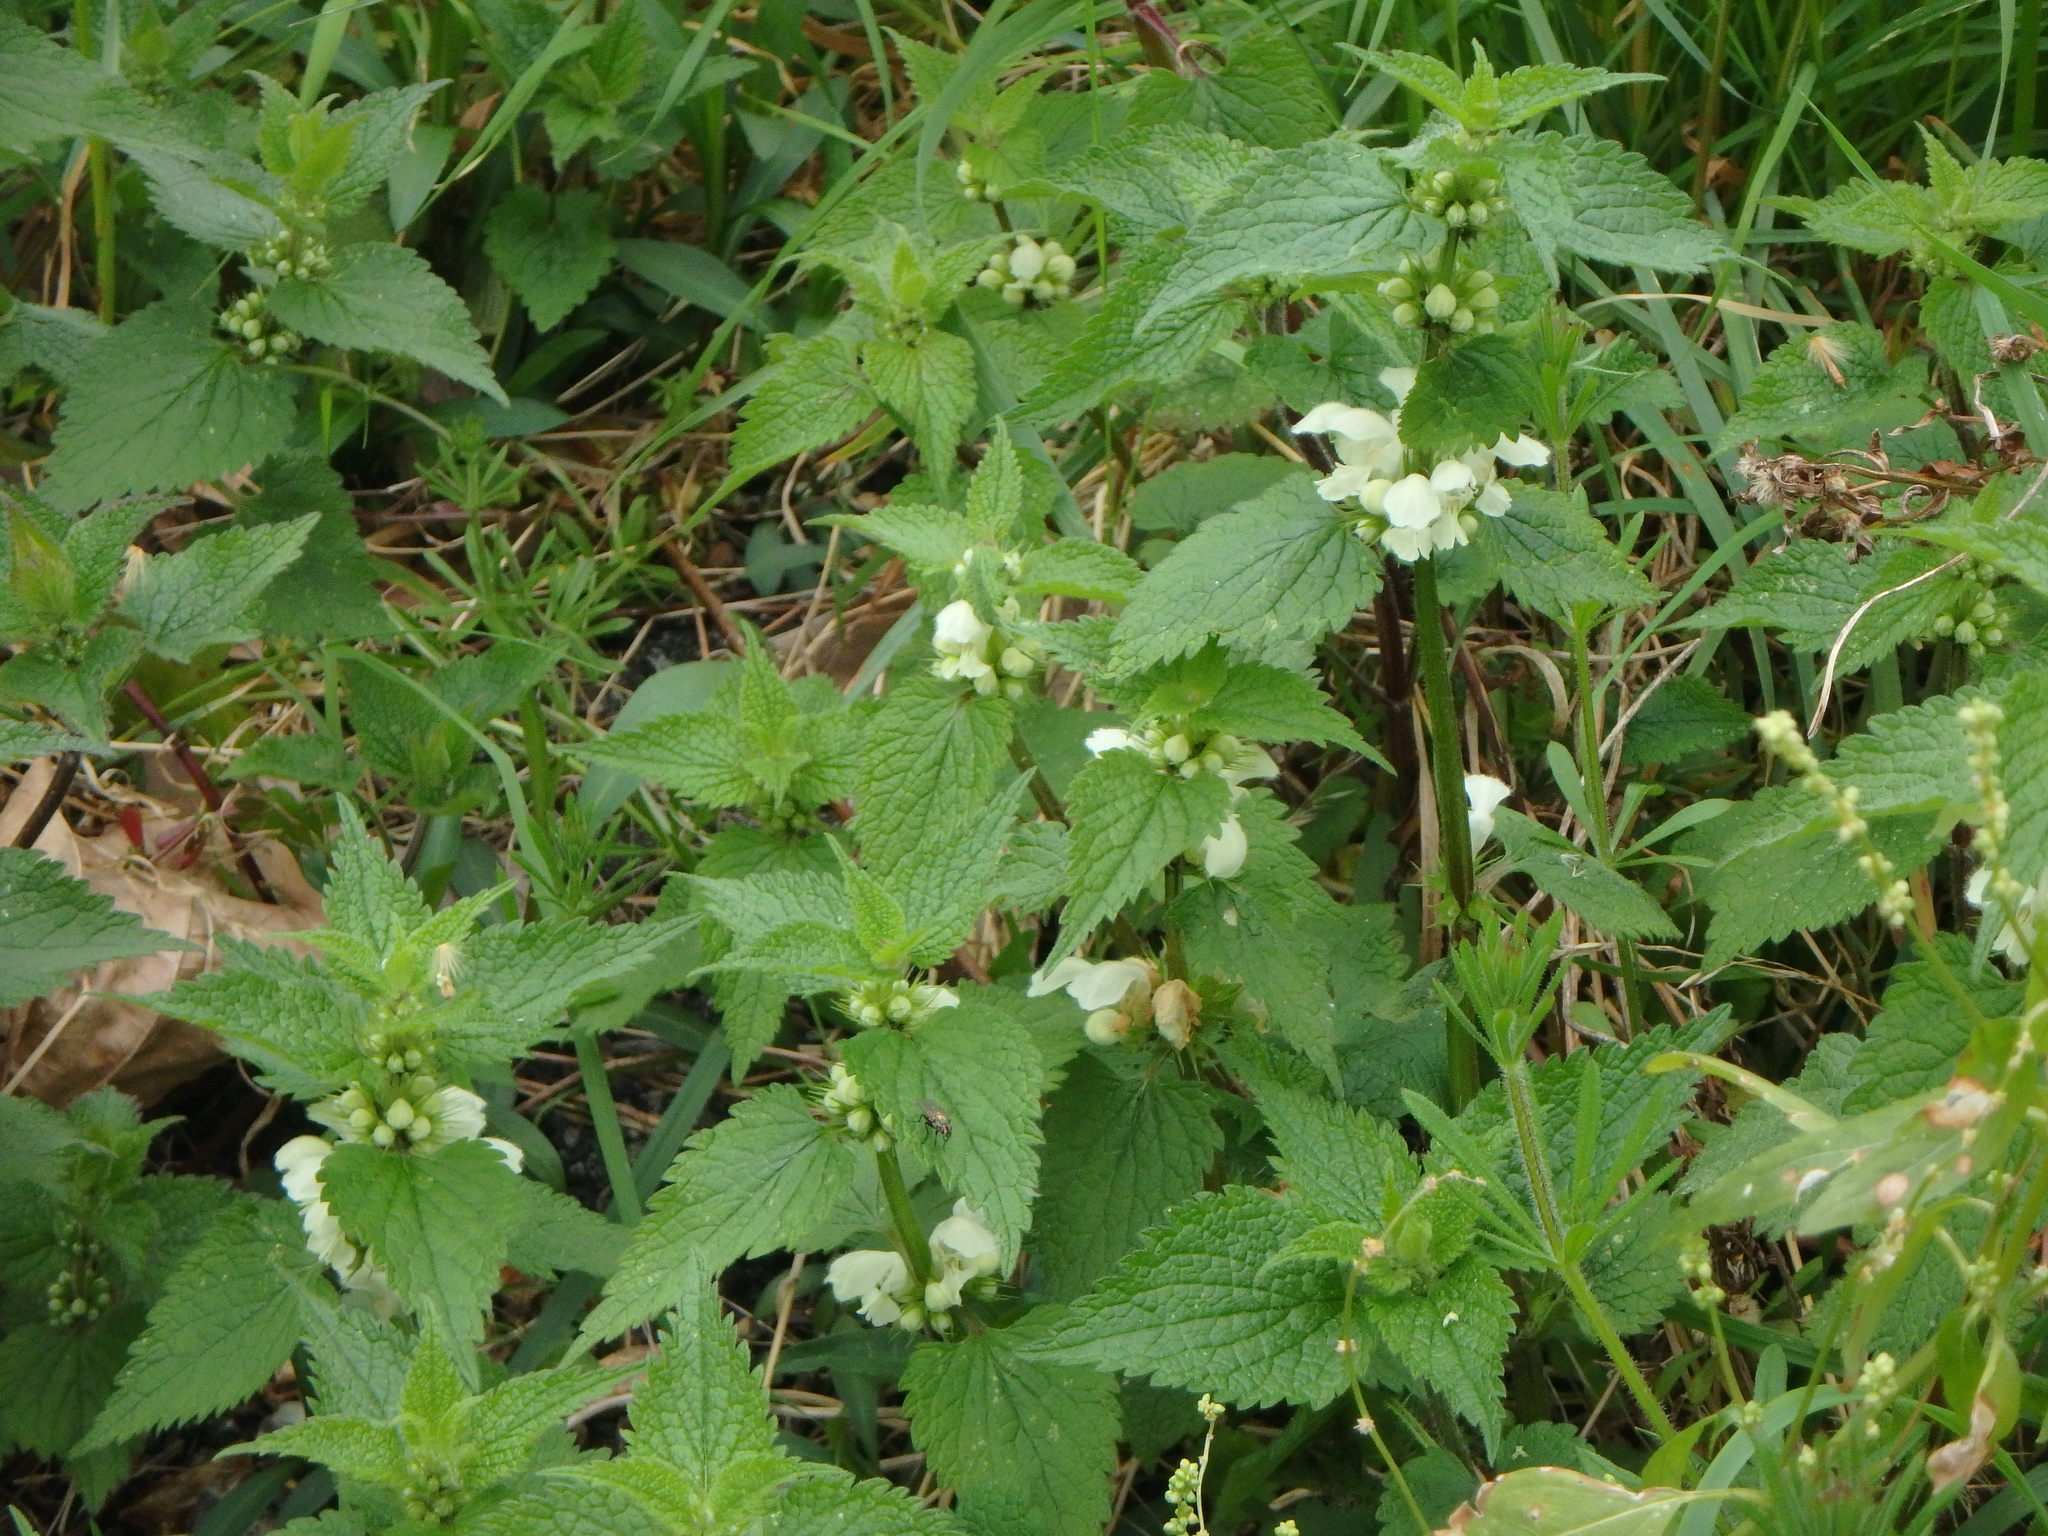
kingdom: Plantae
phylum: Tracheophyta
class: Magnoliopsida
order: Lamiales
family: Lamiaceae
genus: Lamium
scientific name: Lamium album
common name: White dead-nettle
